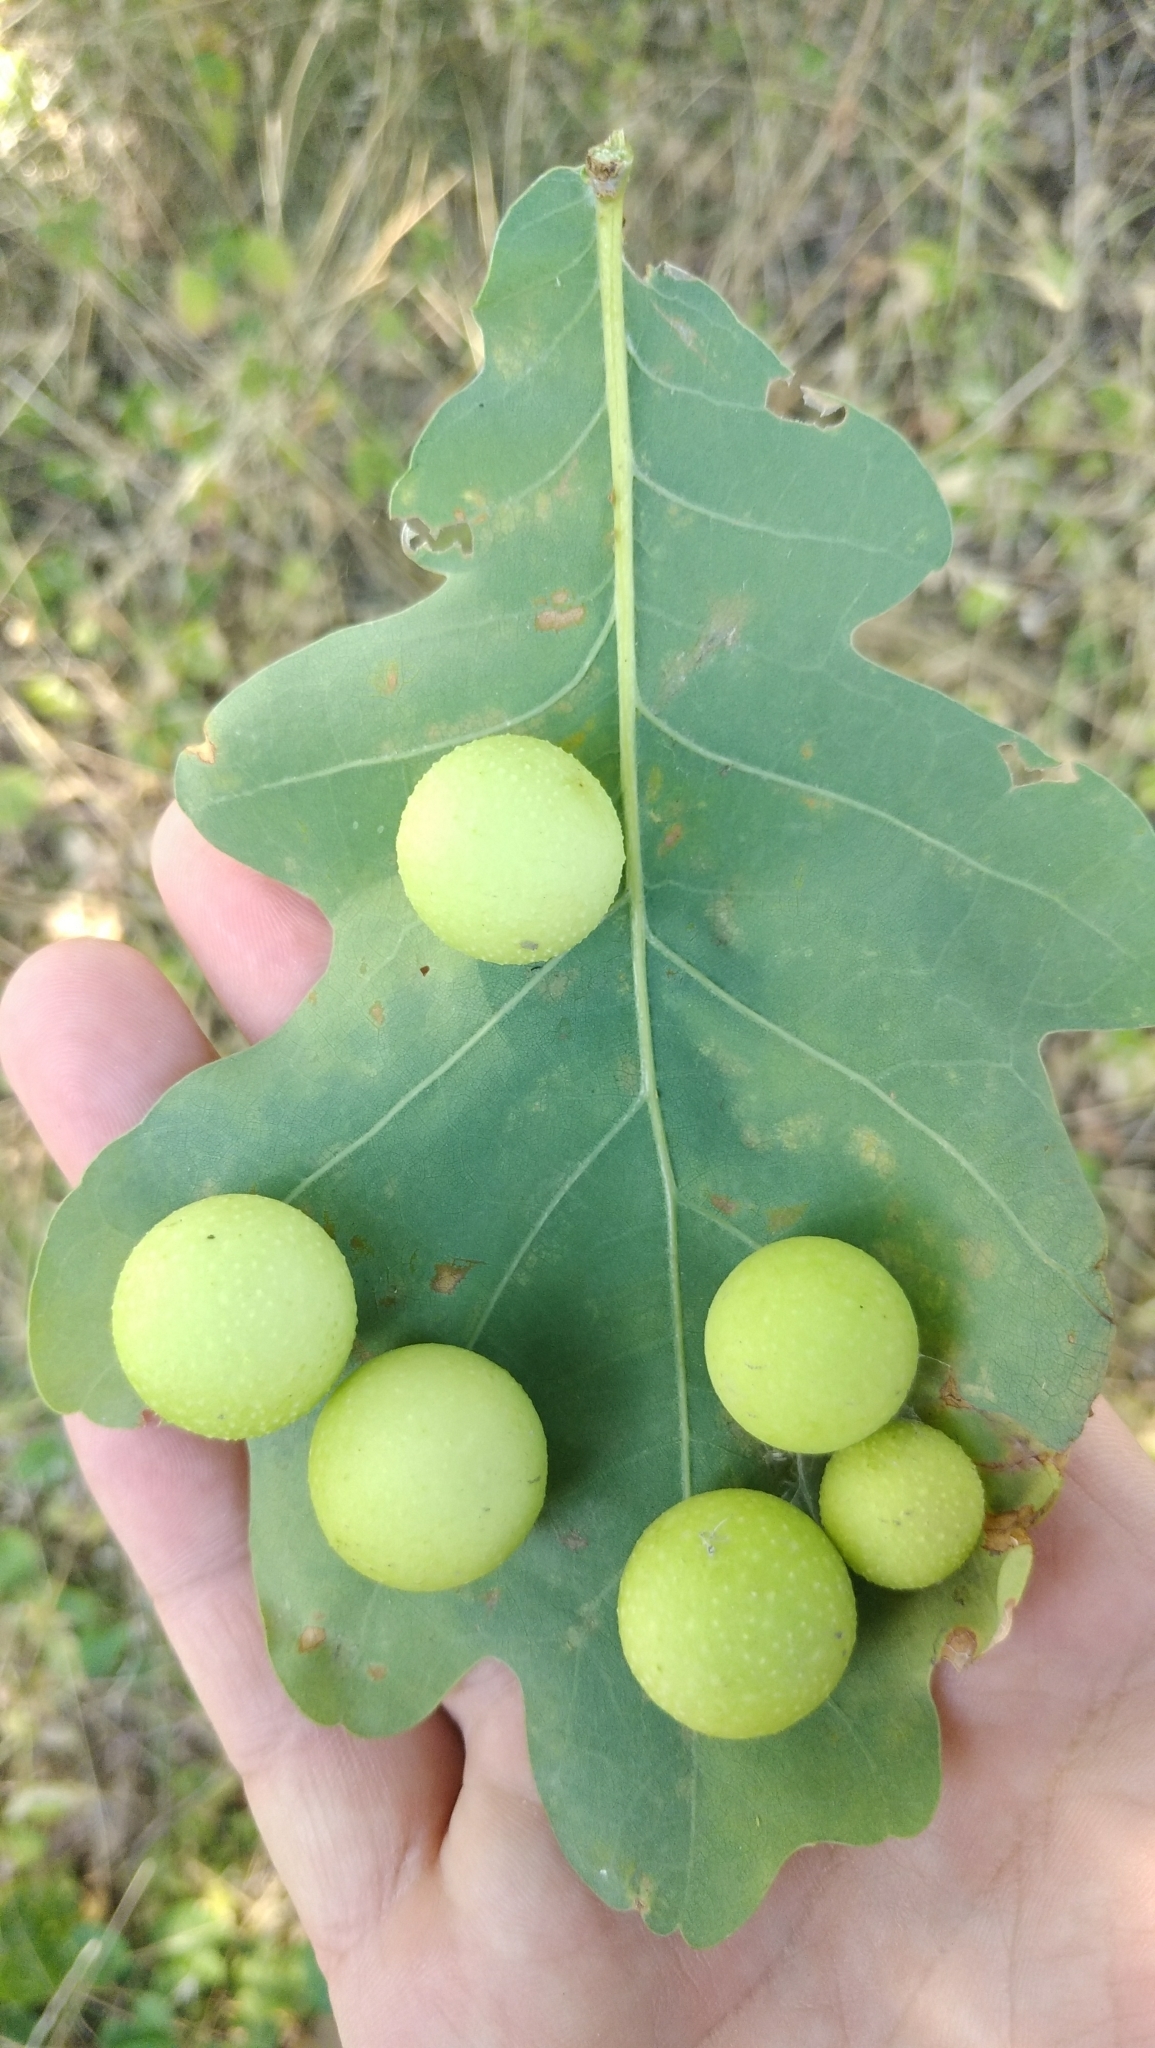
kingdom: Animalia
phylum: Arthropoda
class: Insecta
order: Hymenoptera
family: Cynipidae
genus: Cynips
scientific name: Cynips quercusfolii
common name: Cherry gall
